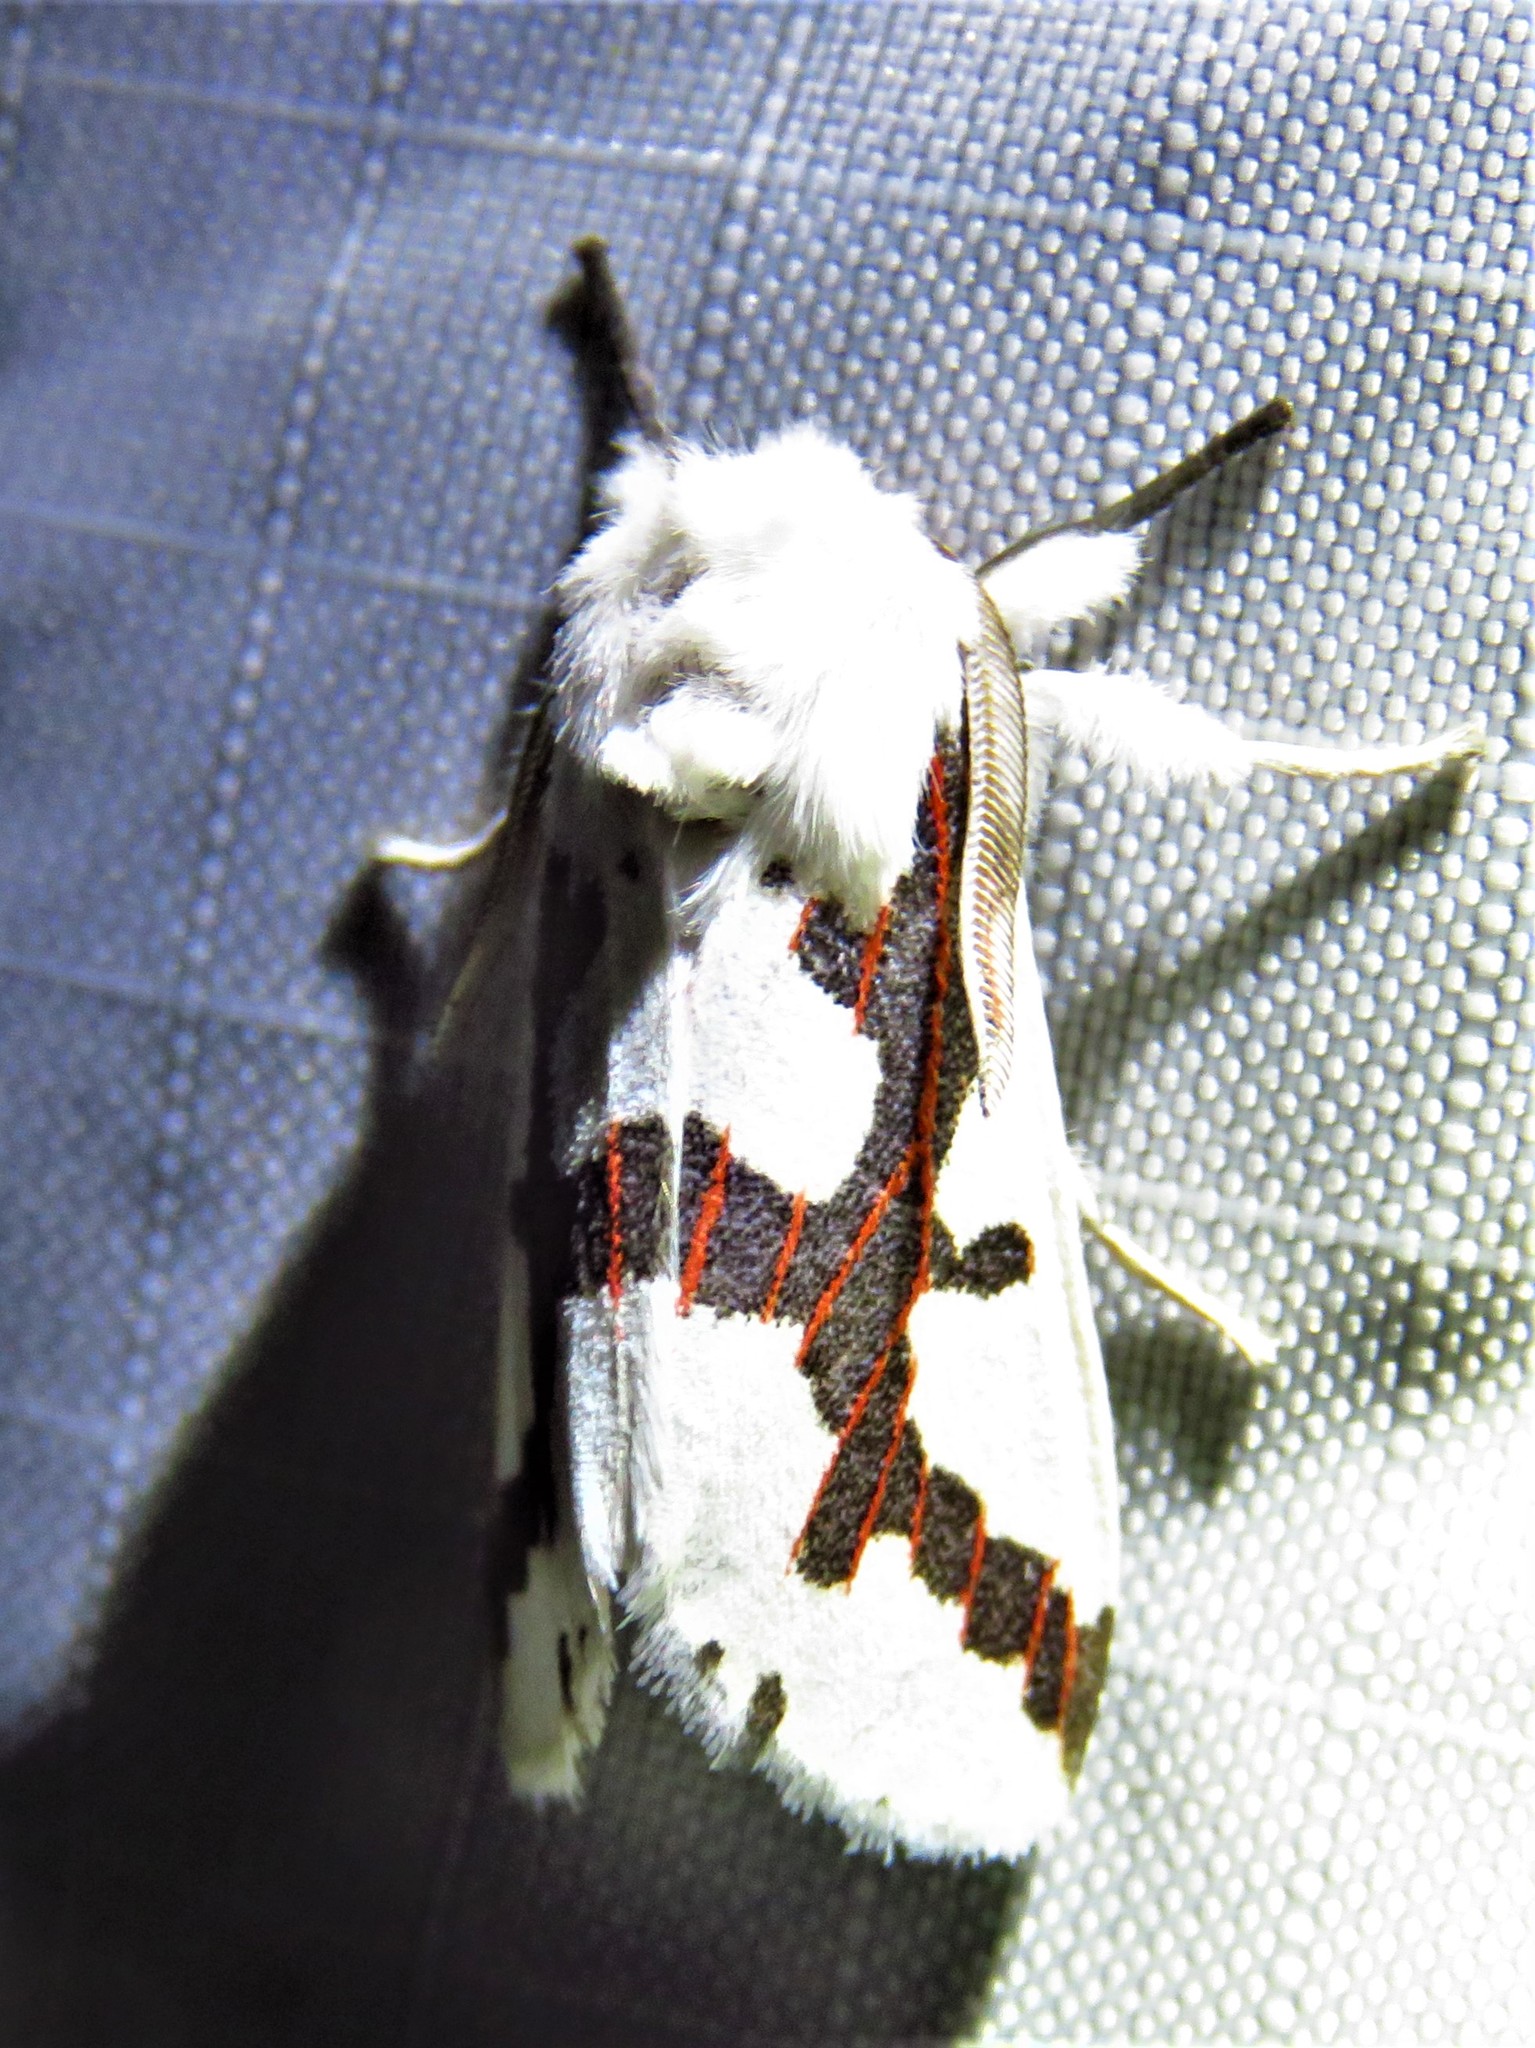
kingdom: Animalia
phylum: Arthropoda
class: Insecta
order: Lepidoptera
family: Erebidae
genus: Euerythra
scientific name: Euerythra phasma
